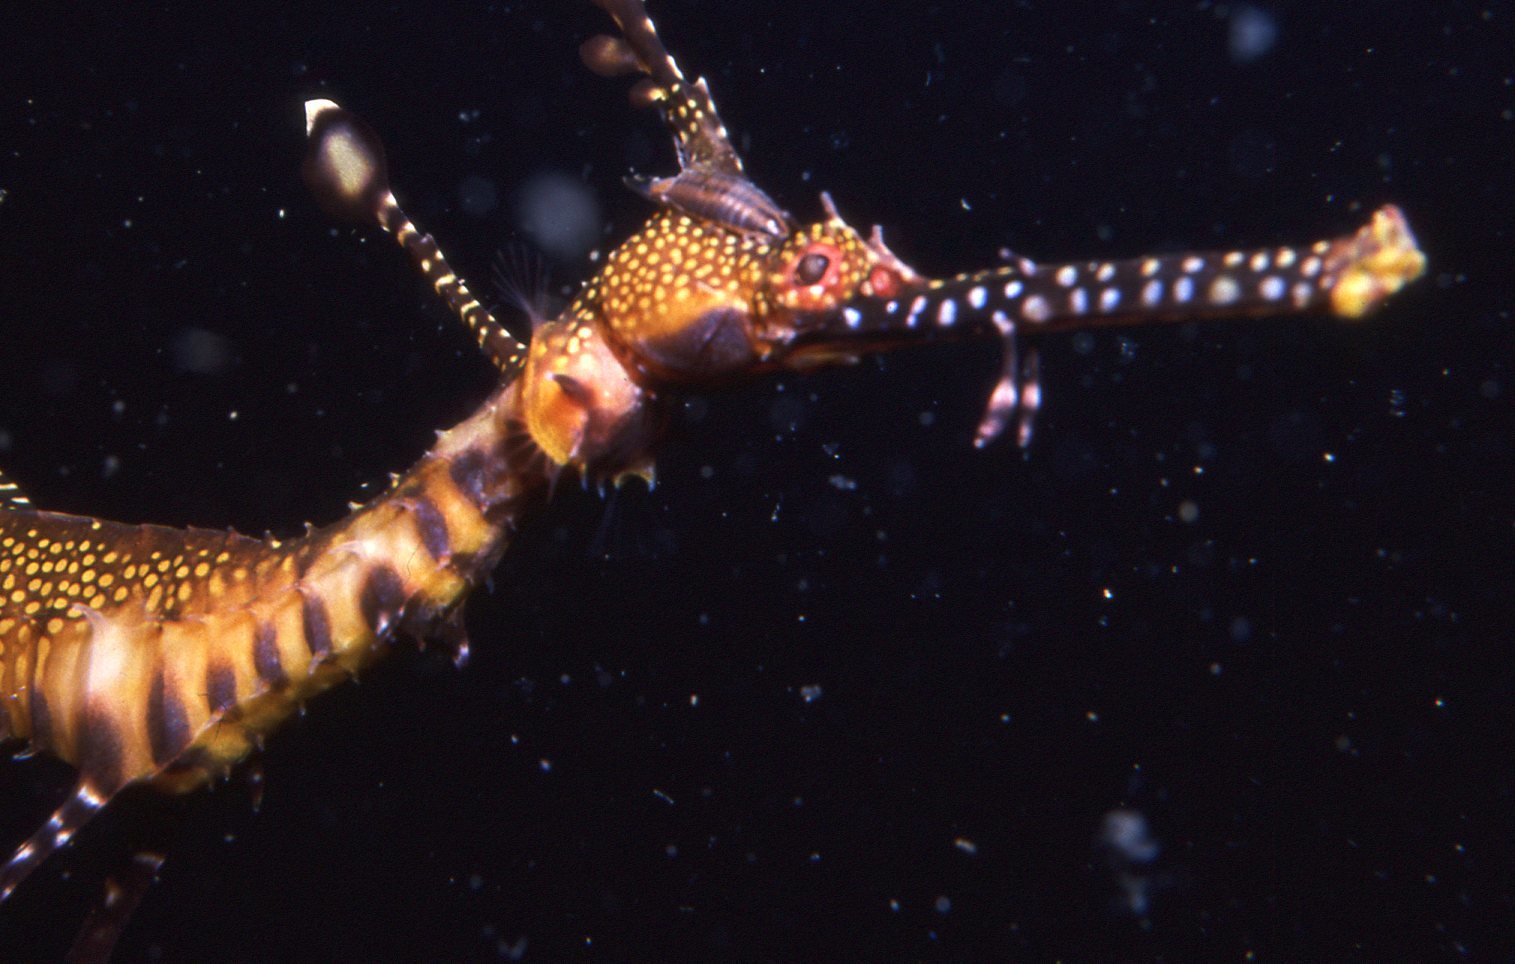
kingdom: Animalia
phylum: Chordata
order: Syngnathiformes
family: Syngnathidae
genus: Phyllopteryx
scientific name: Phyllopteryx taeniolatus
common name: Common seadragon
